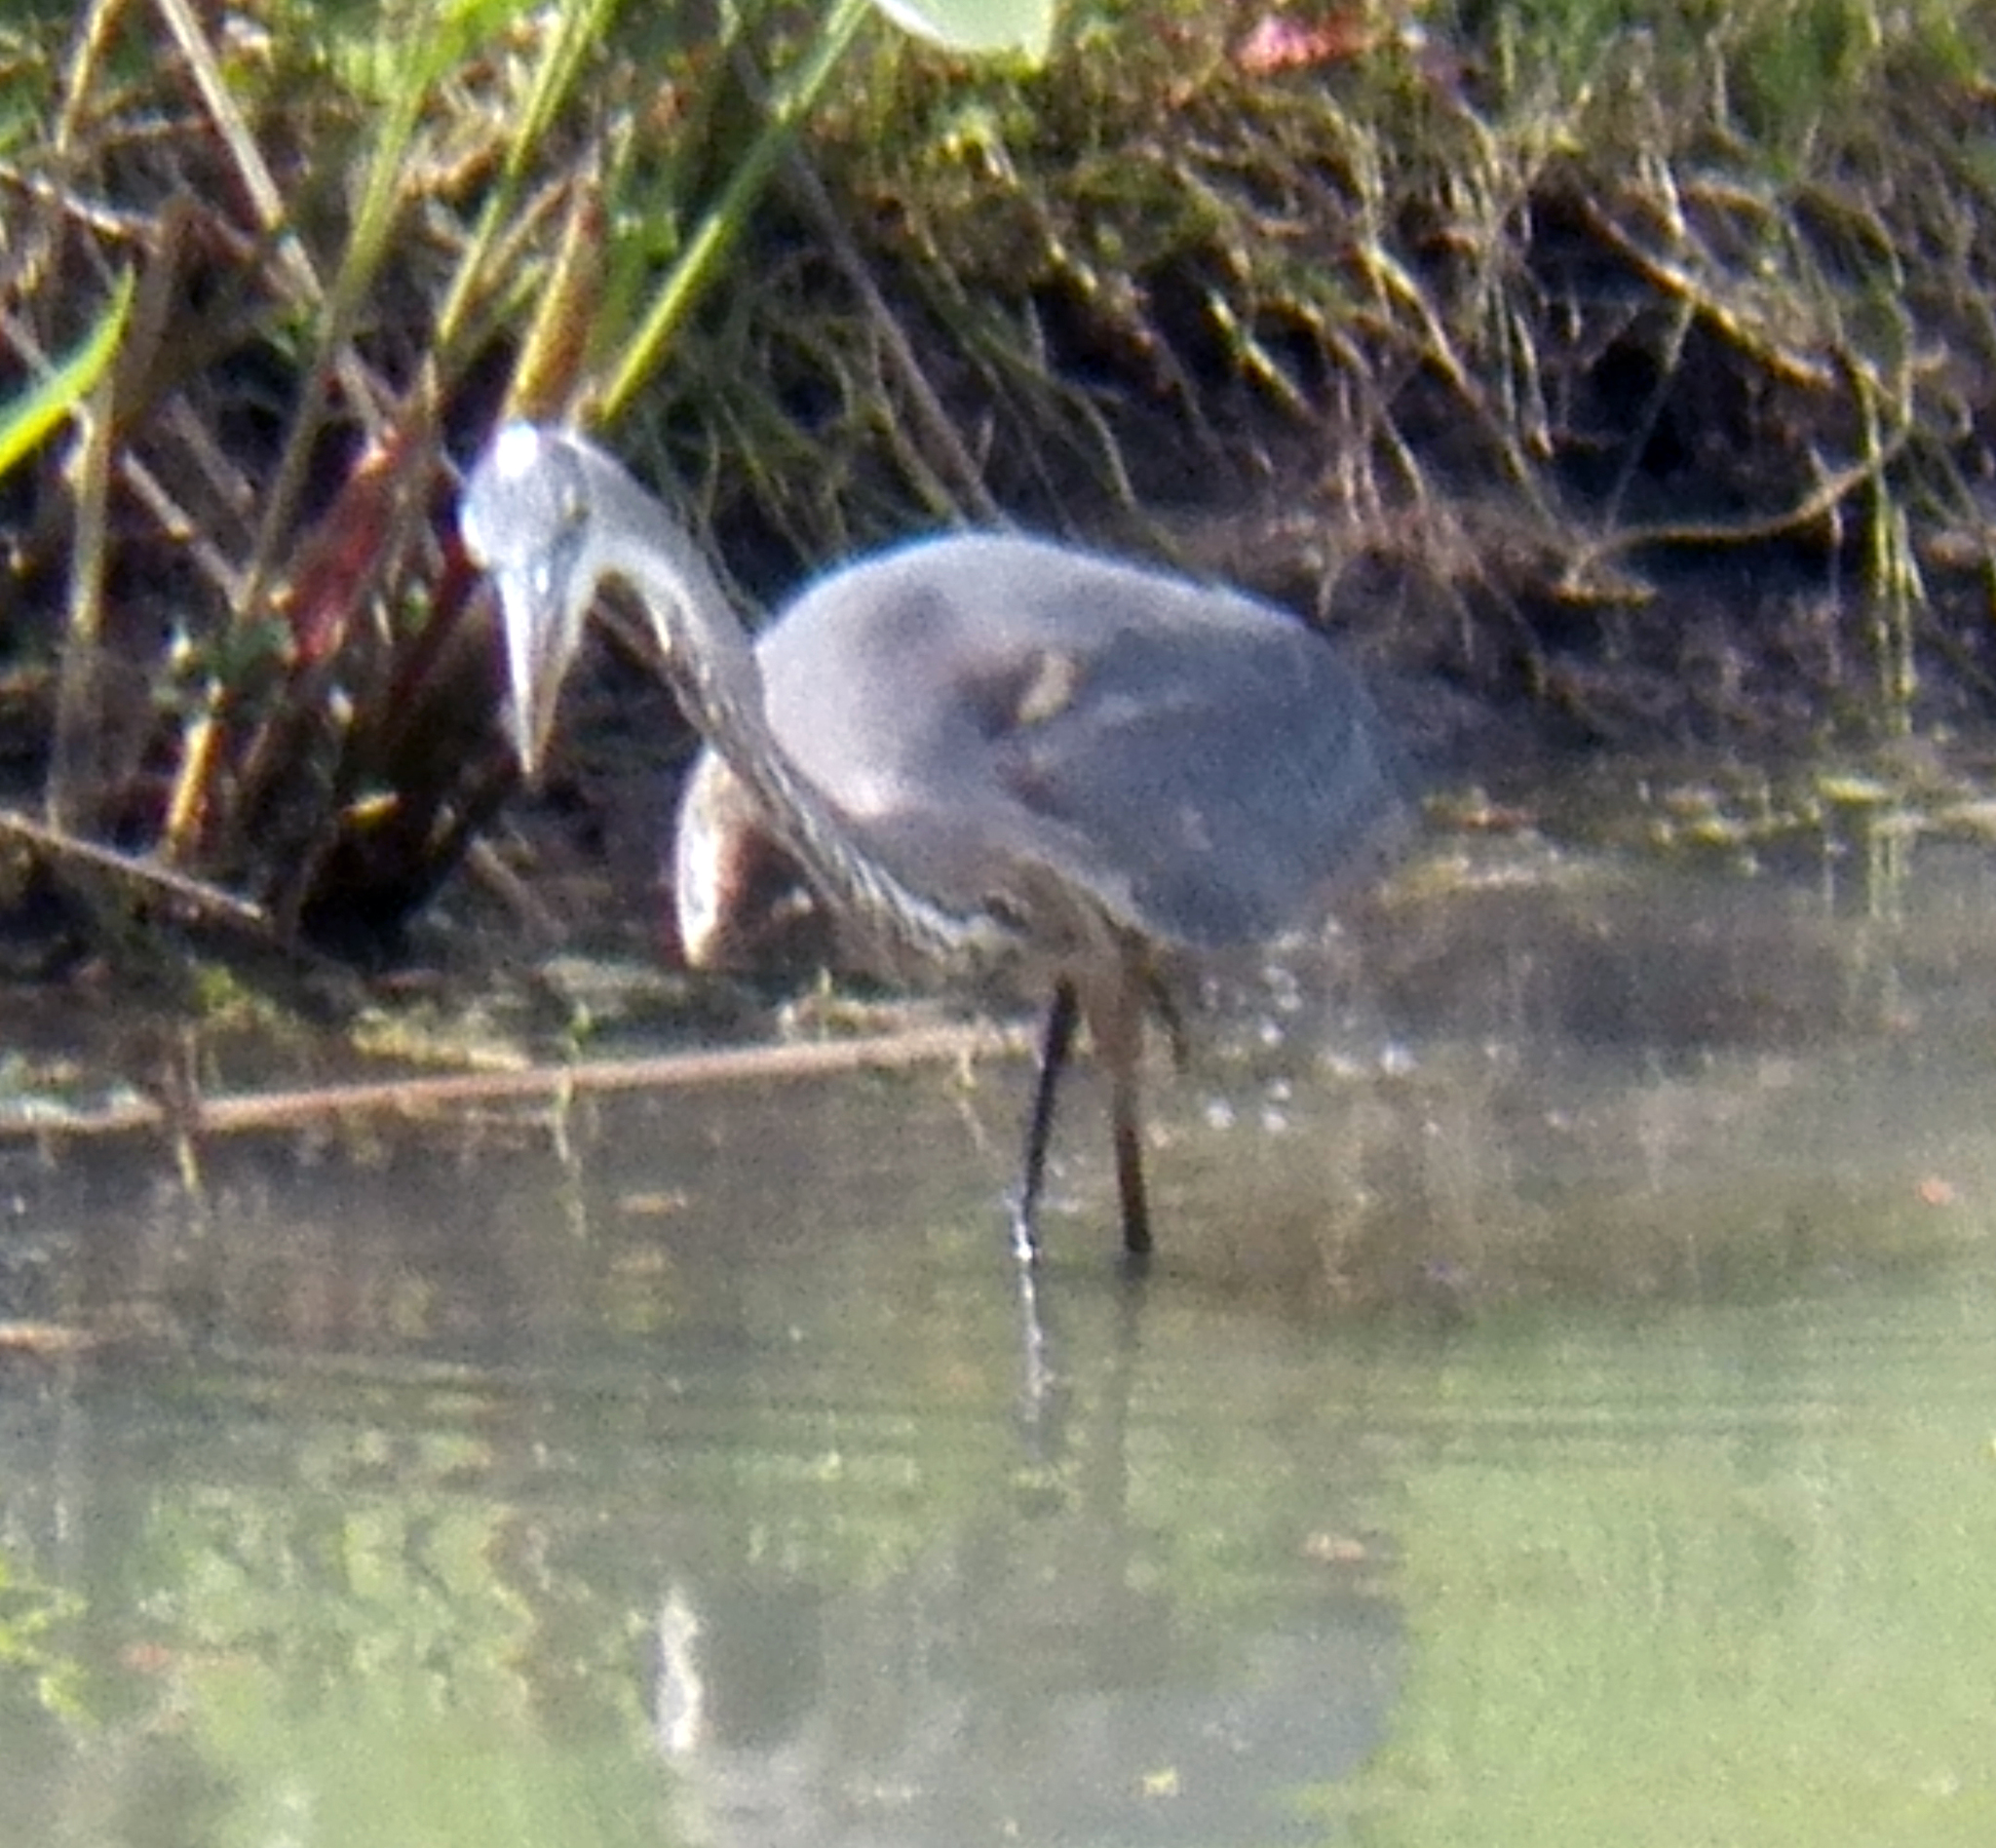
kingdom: Animalia
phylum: Chordata
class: Aves
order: Pelecaniformes
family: Ardeidae
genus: Ardea
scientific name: Ardea herodias
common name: Great blue heron
